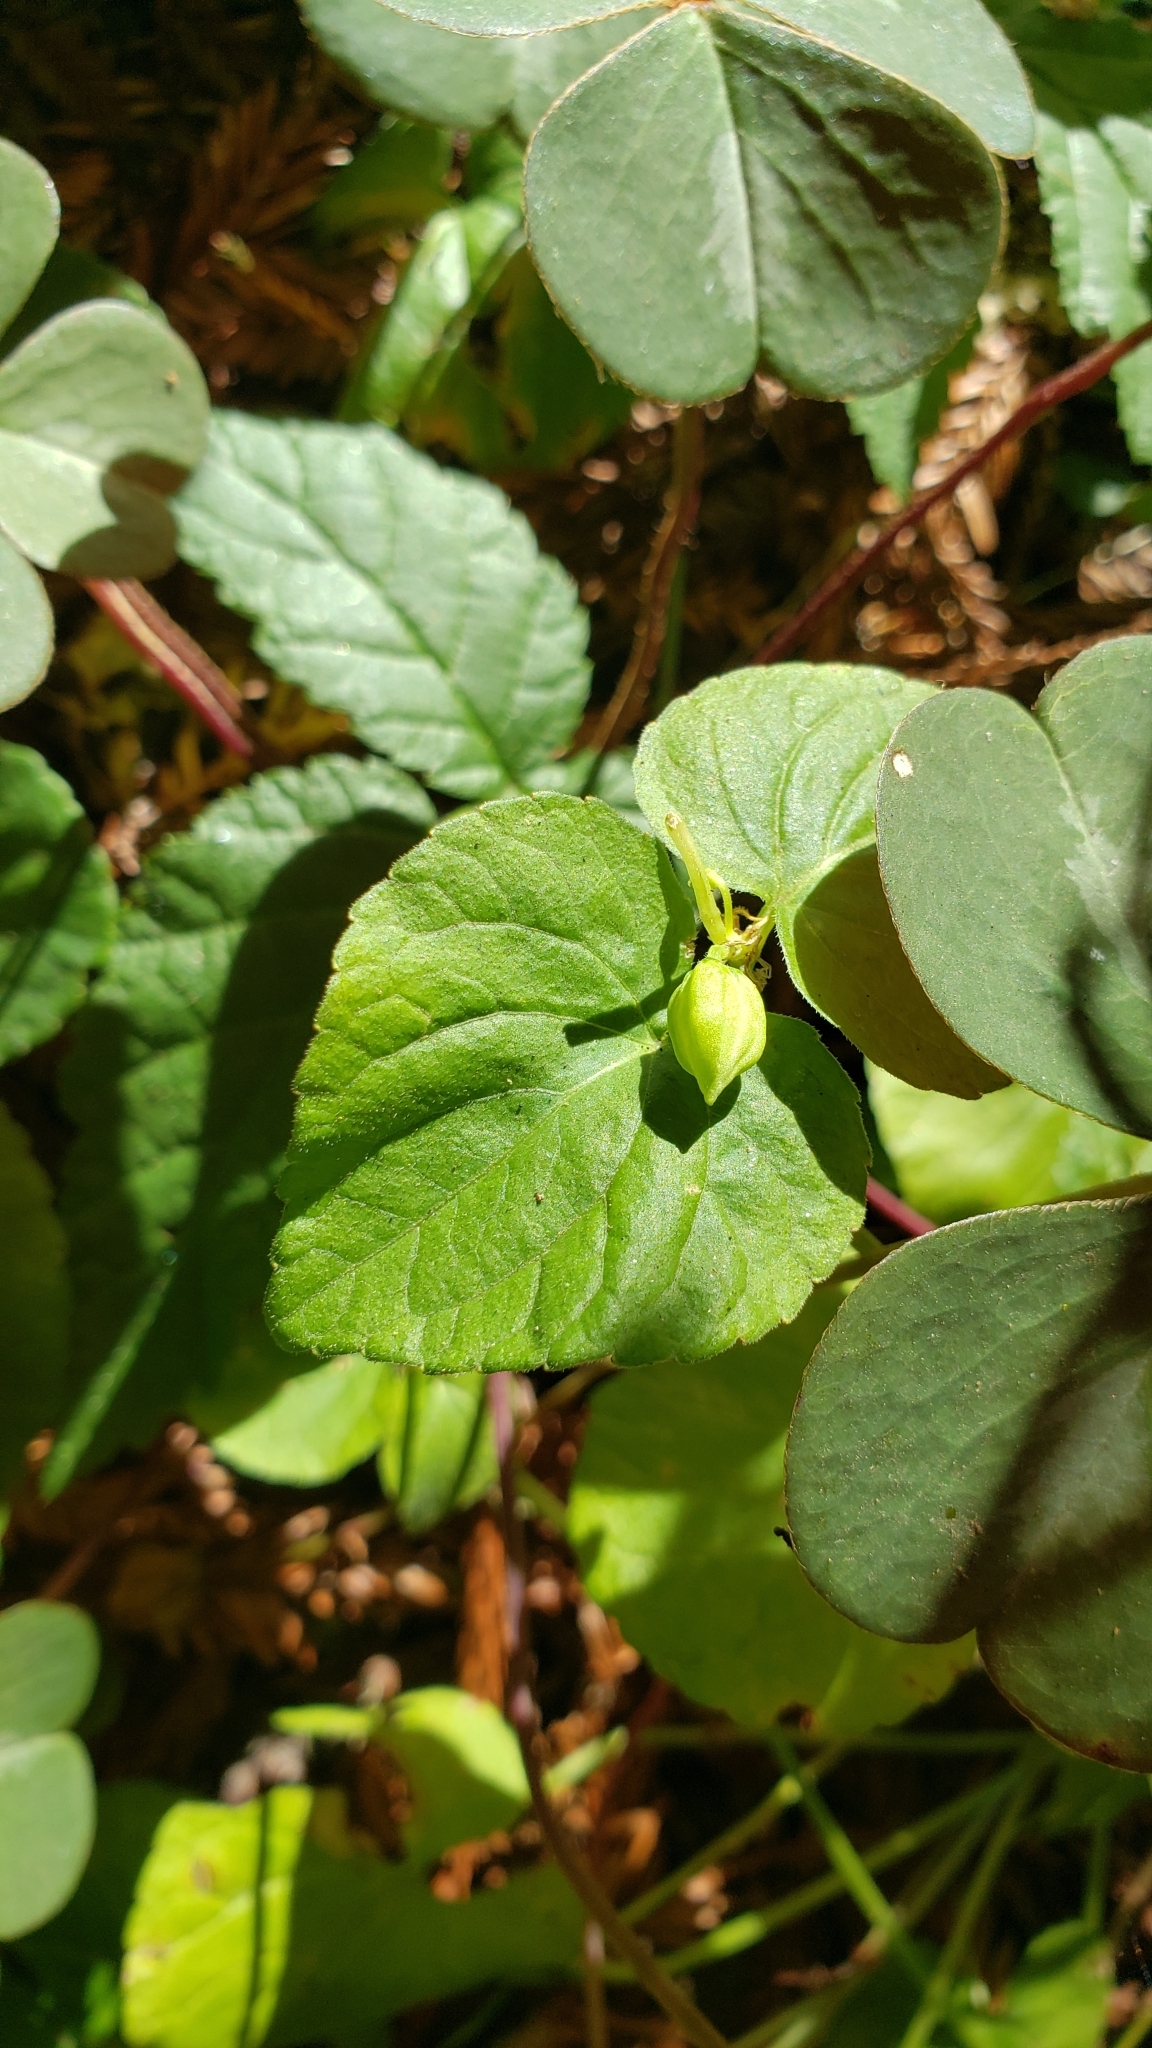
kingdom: Plantae
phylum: Tracheophyta
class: Magnoliopsida
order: Malpighiales
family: Violaceae
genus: Viola
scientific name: Viola glabella
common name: Stream violet
